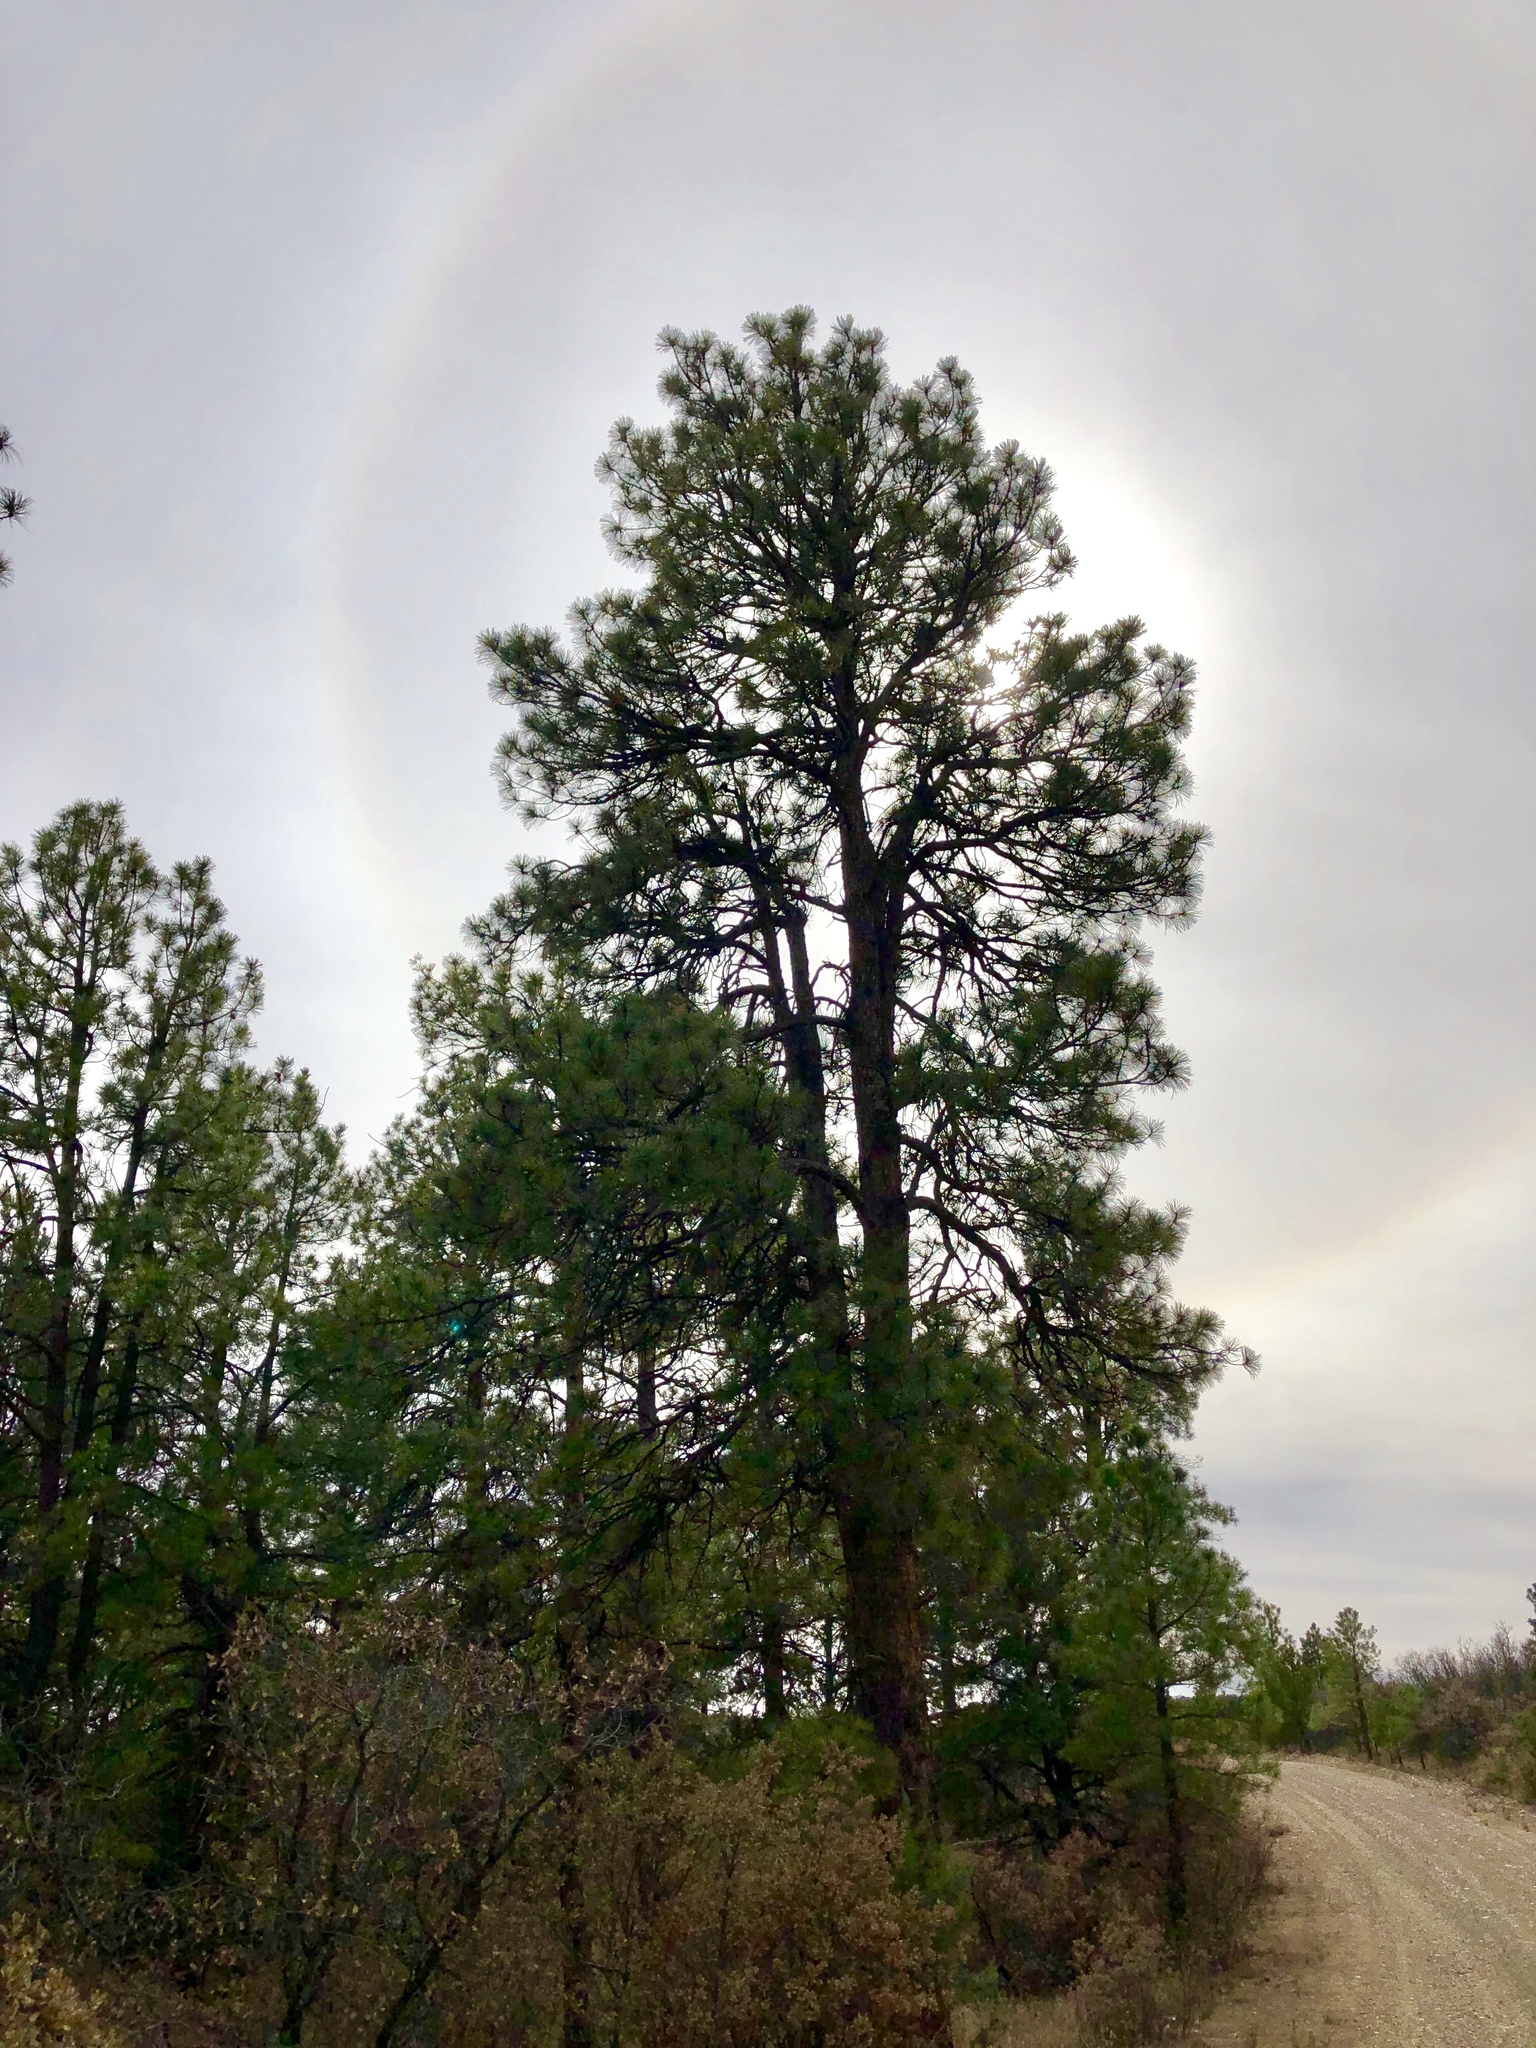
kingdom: Plantae
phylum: Tracheophyta
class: Pinopsida
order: Pinales
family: Pinaceae
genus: Pinus
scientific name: Pinus ponderosa
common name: Western yellow-pine
